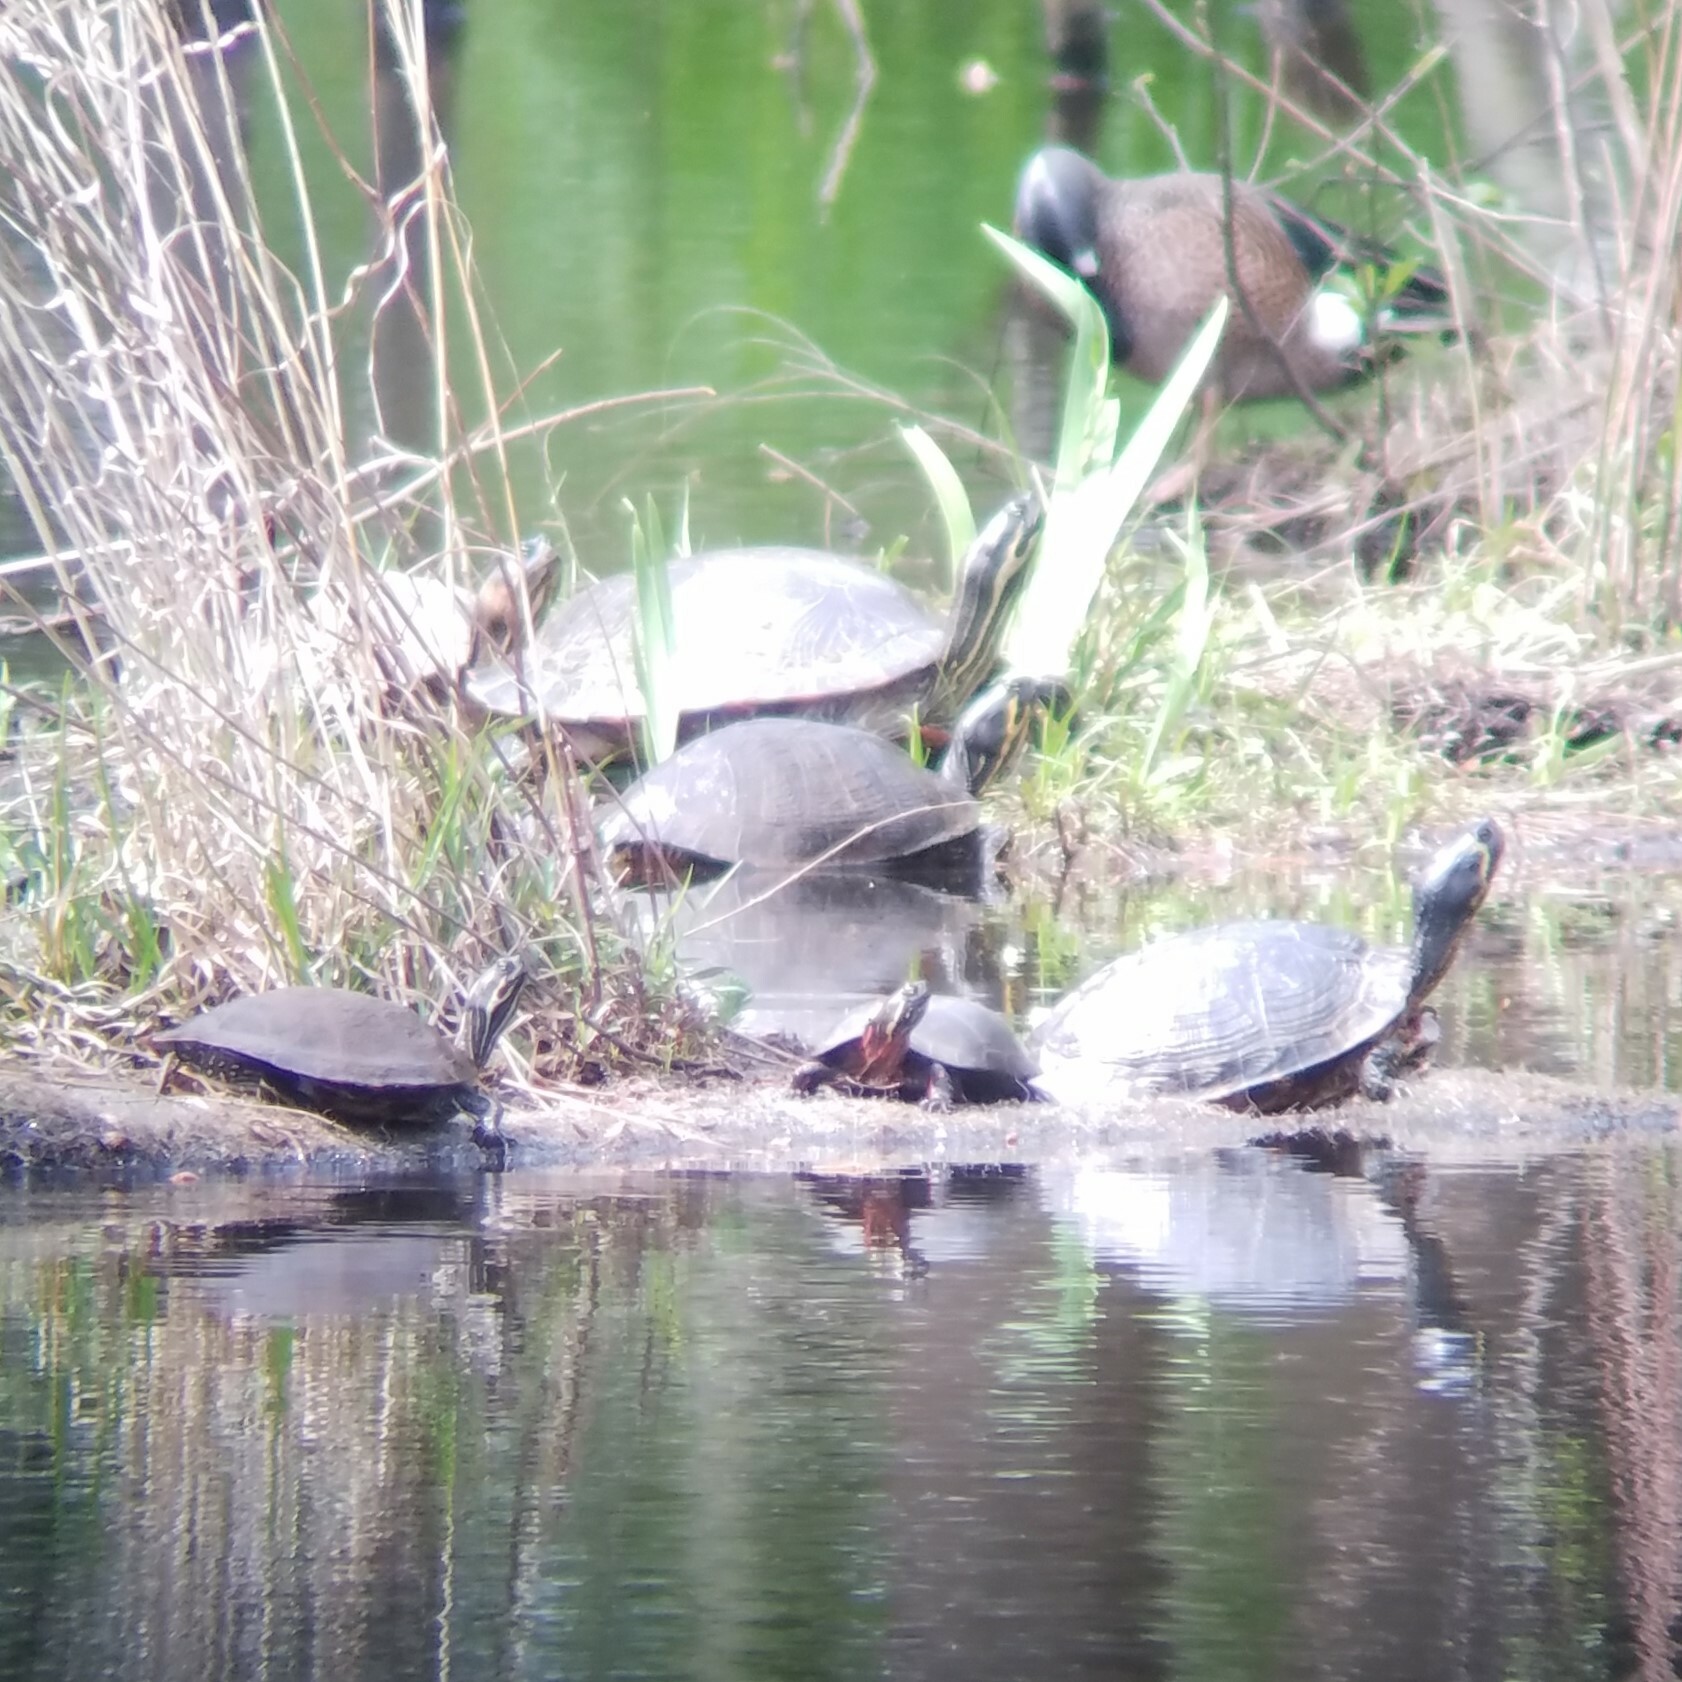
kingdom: Animalia
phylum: Chordata
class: Testudines
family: Emydidae
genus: Pseudemys
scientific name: Pseudemys concinna
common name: Eastern river cooter
